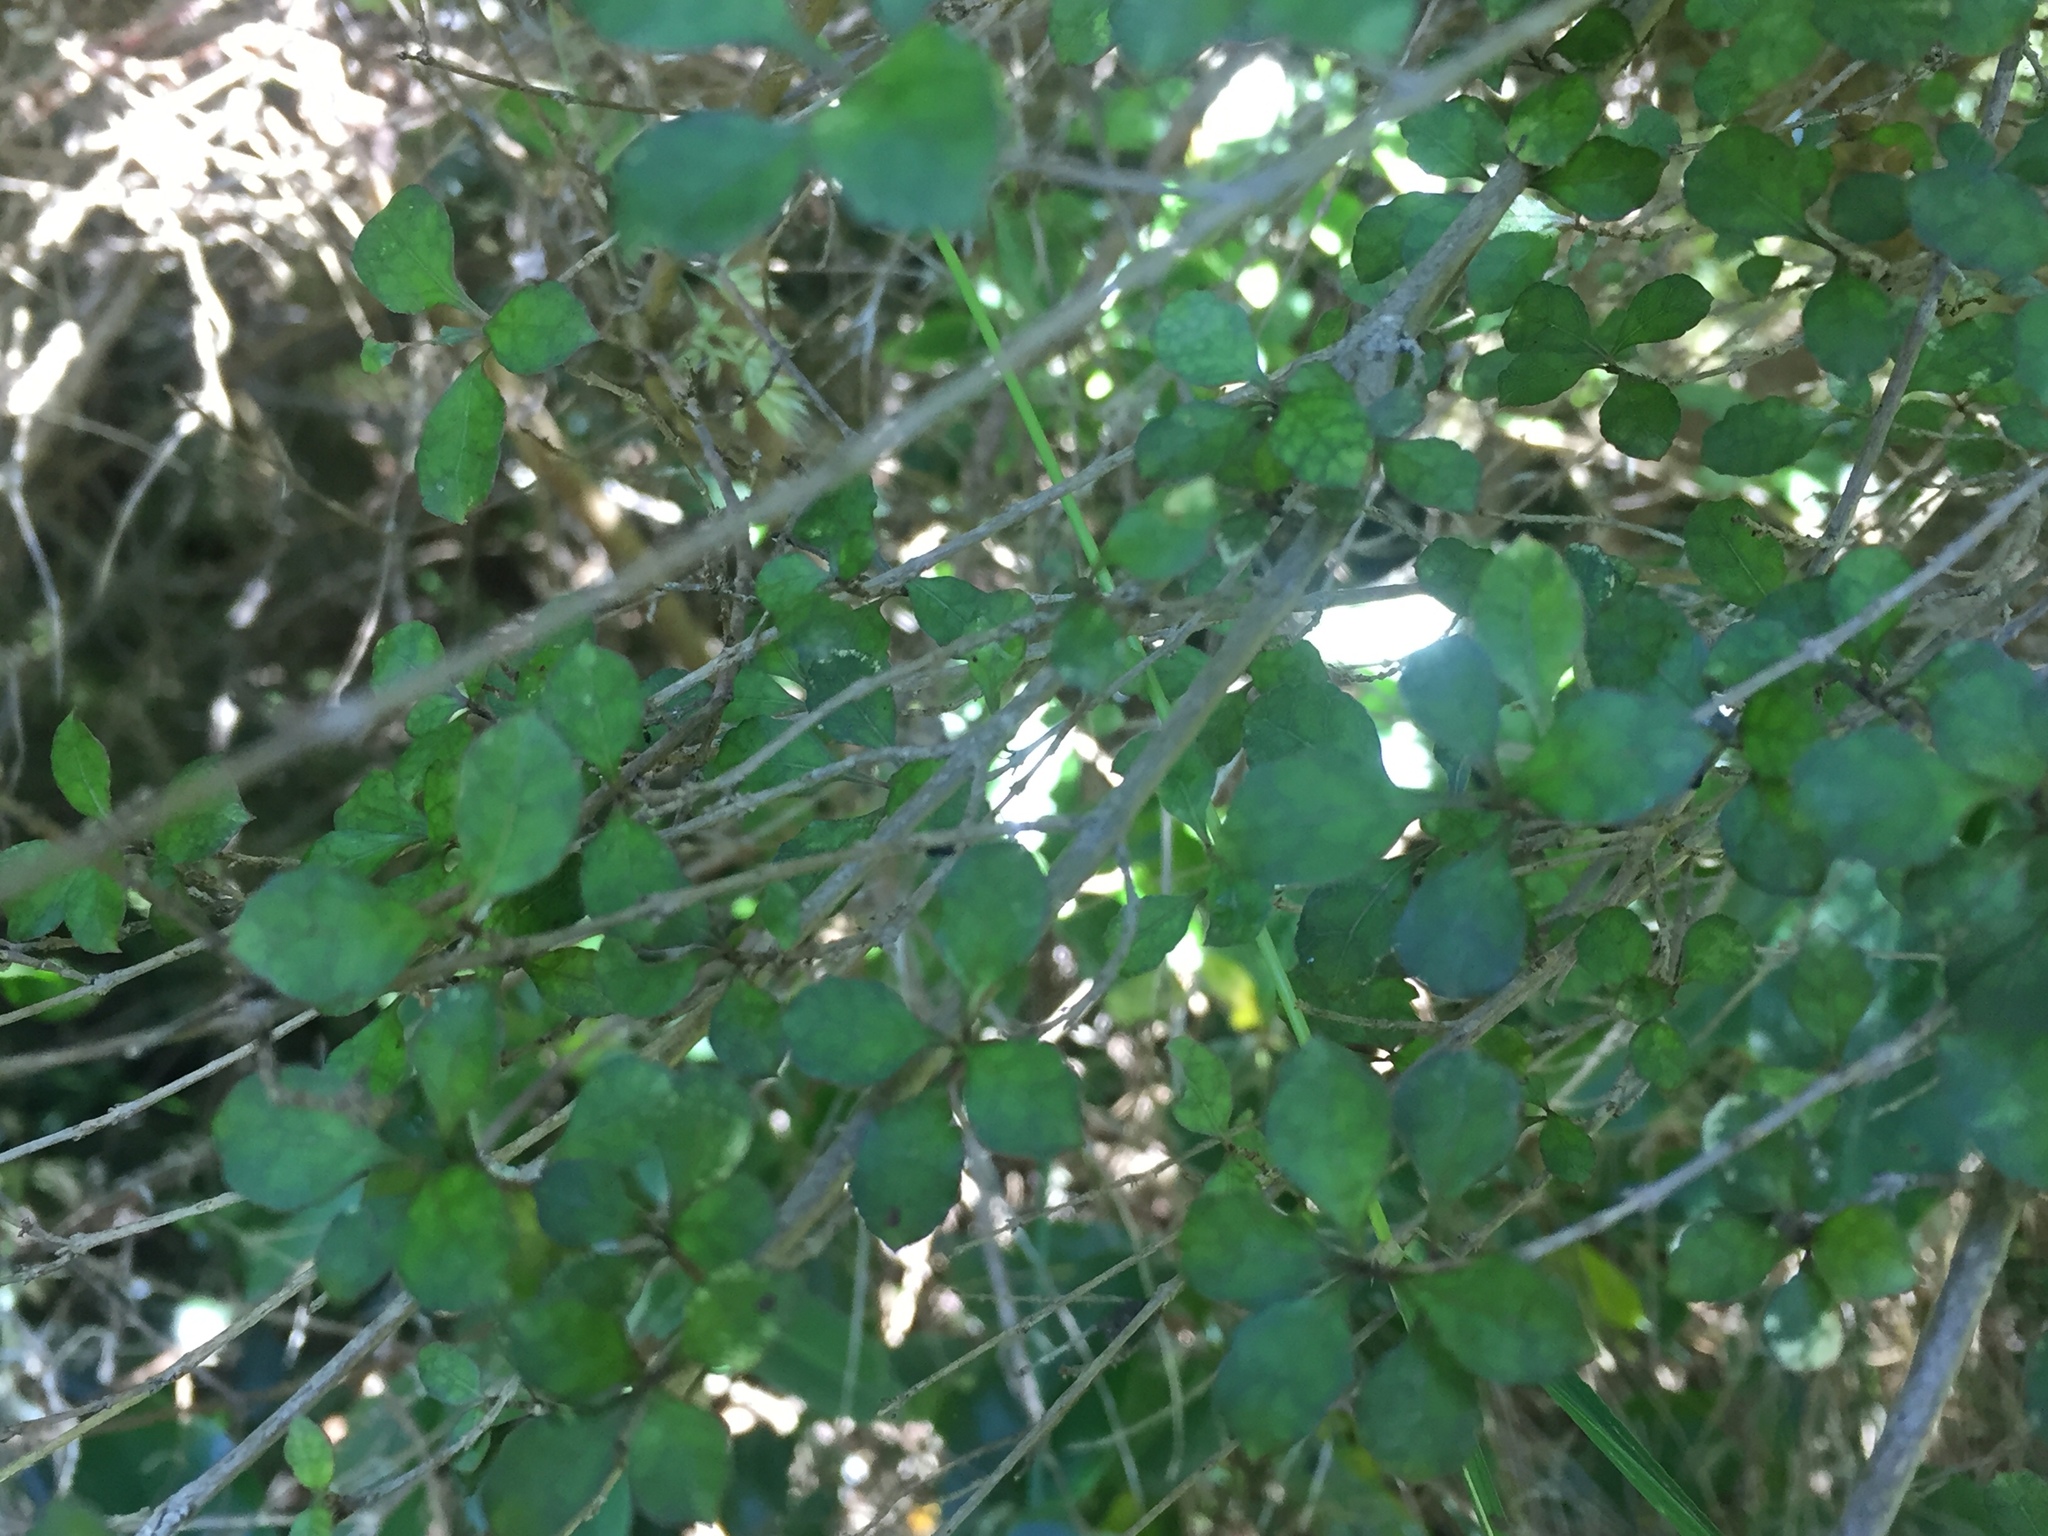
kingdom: Plantae
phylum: Tracheophyta
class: Magnoliopsida
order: Gentianales
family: Rubiaceae
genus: Coprosma
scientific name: Coprosma areolata
